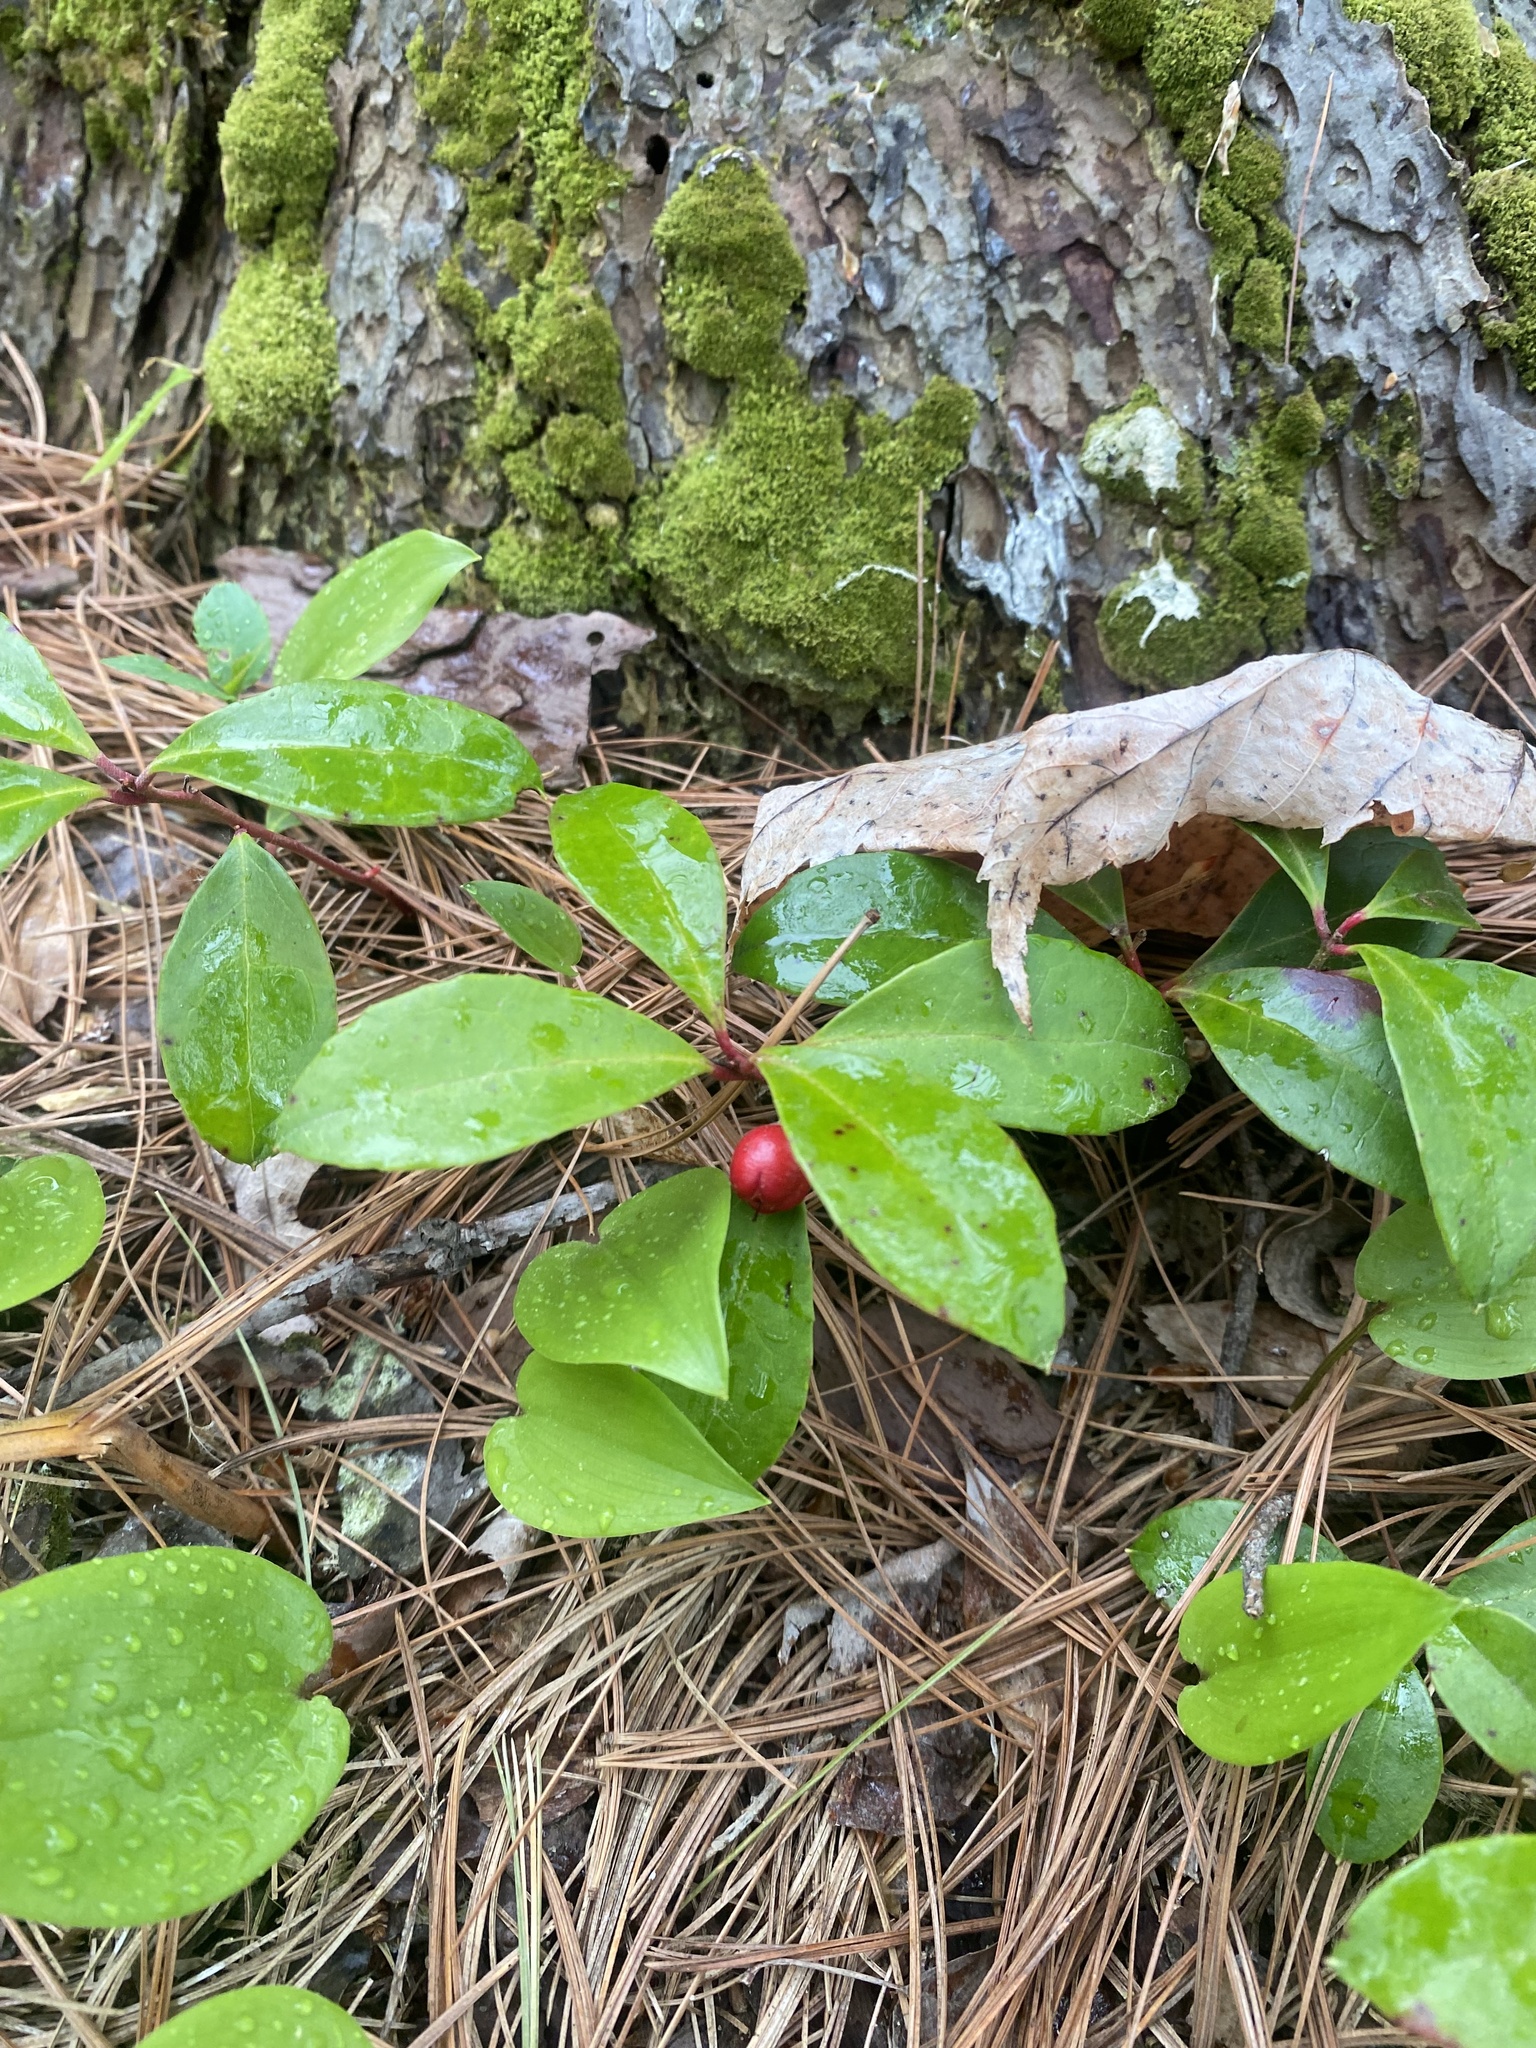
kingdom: Plantae
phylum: Tracheophyta
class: Magnoliopsida
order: Ericales
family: Ericaceae
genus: Gaultheria
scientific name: Gaultheria procumbens
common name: Checkerberry
